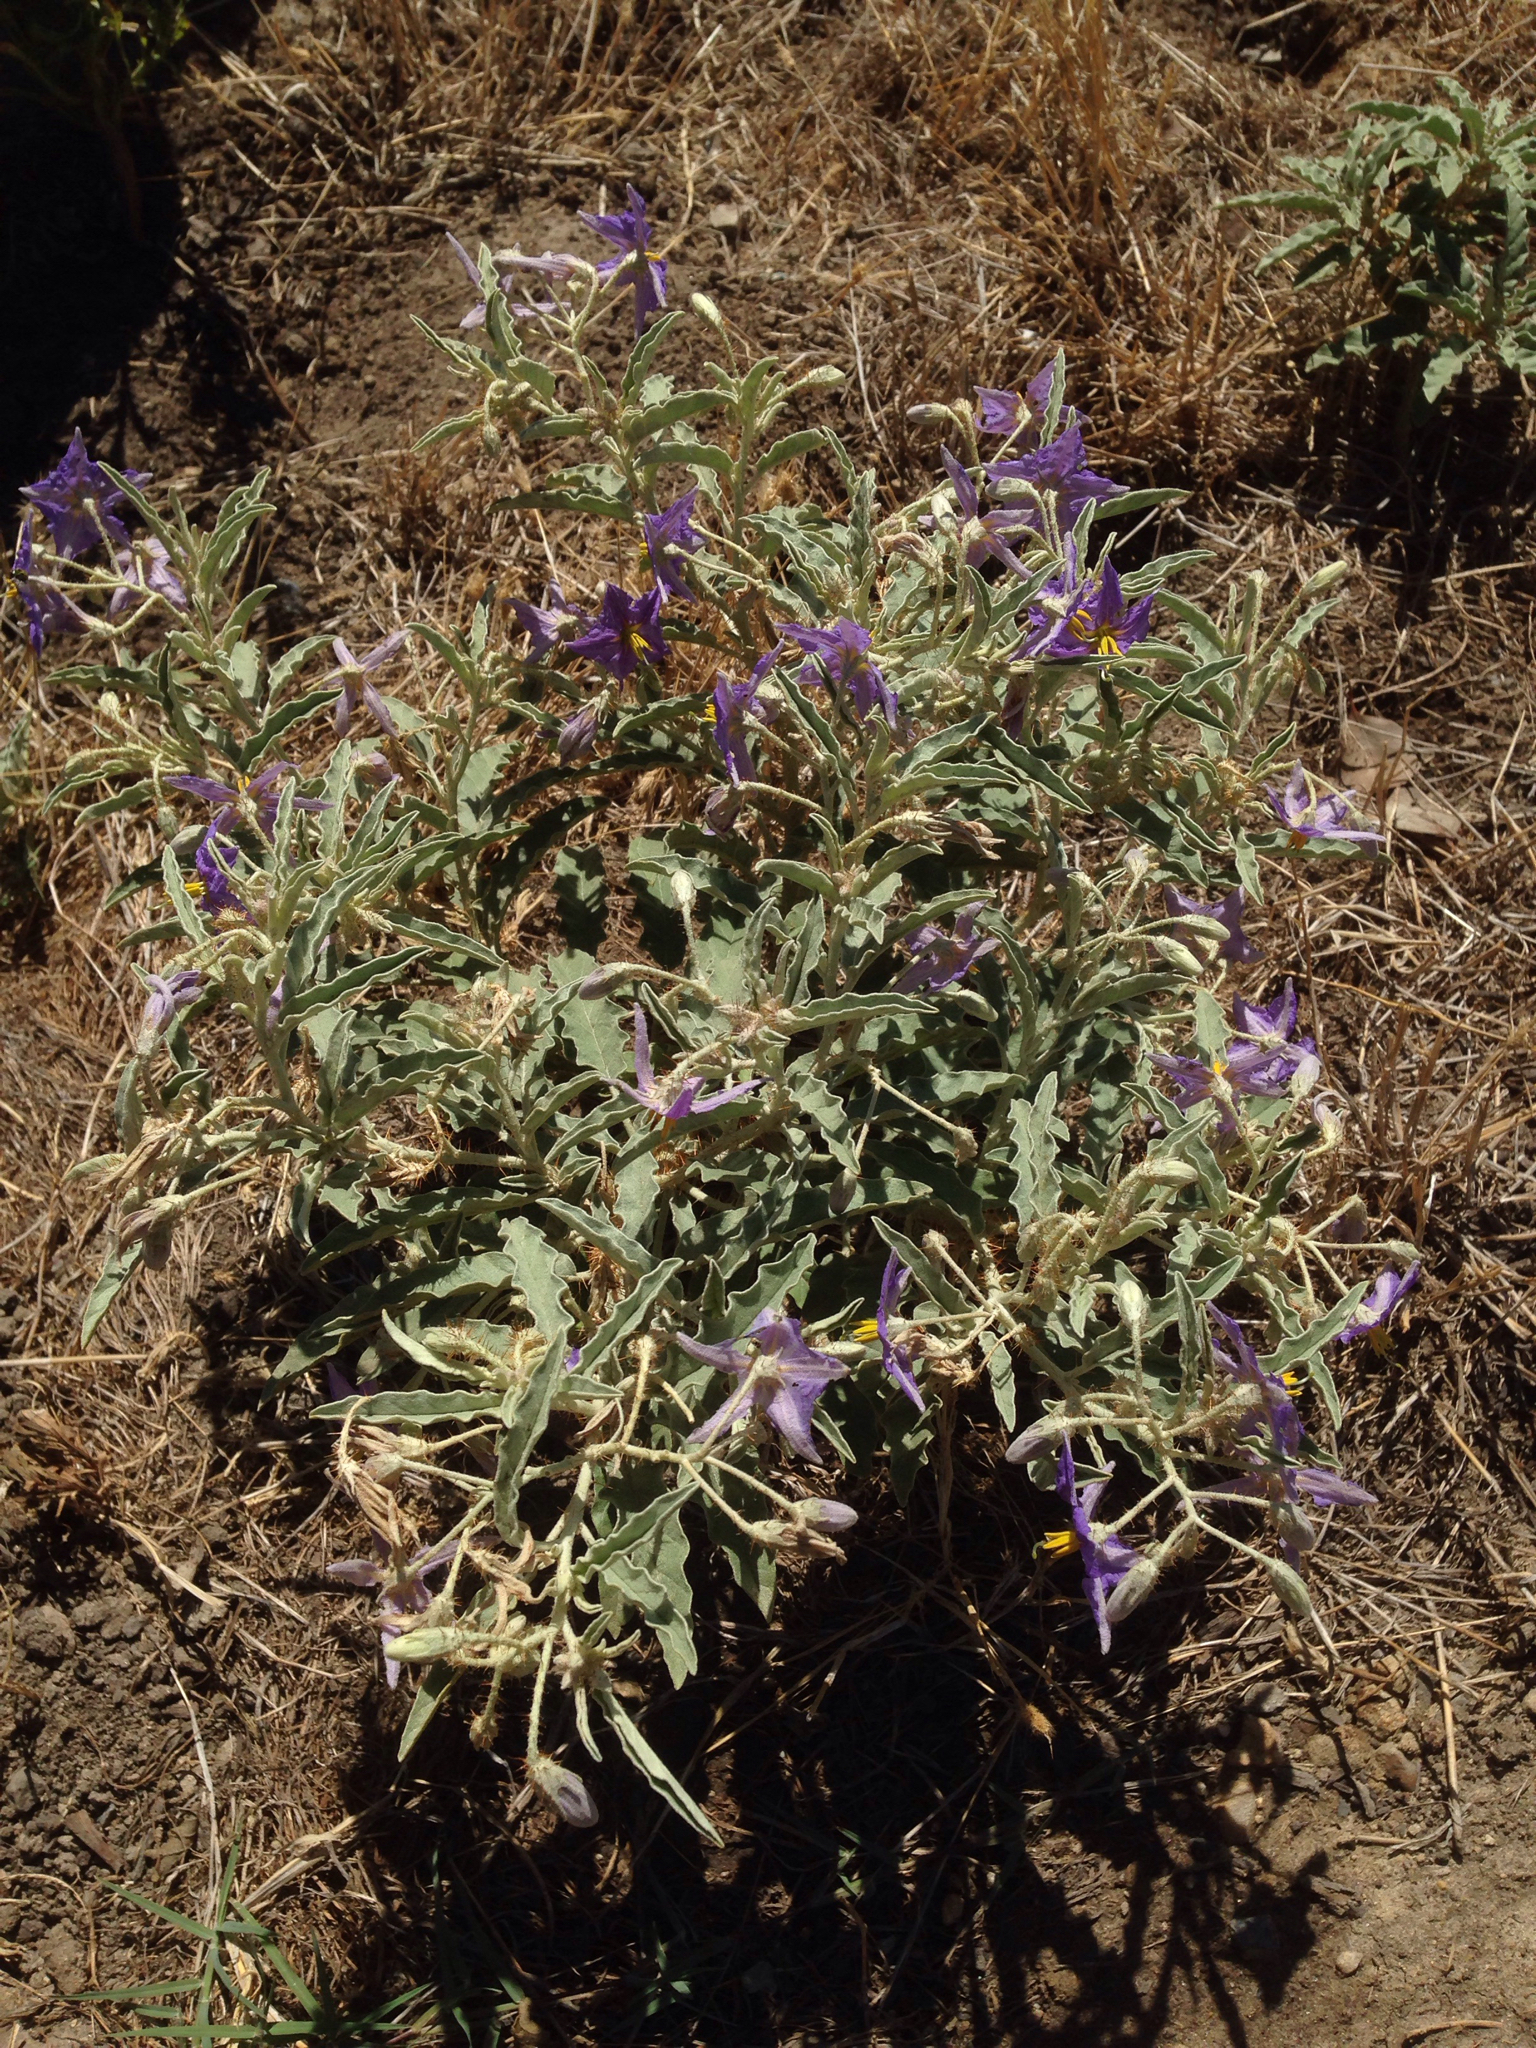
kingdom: Plantae
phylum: Tracheophyta
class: Magnoliopsida
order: Solanales
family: Solanaceae
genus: Solanum
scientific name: Solanum elaeagnifolium
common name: Silverleaf nightshade
